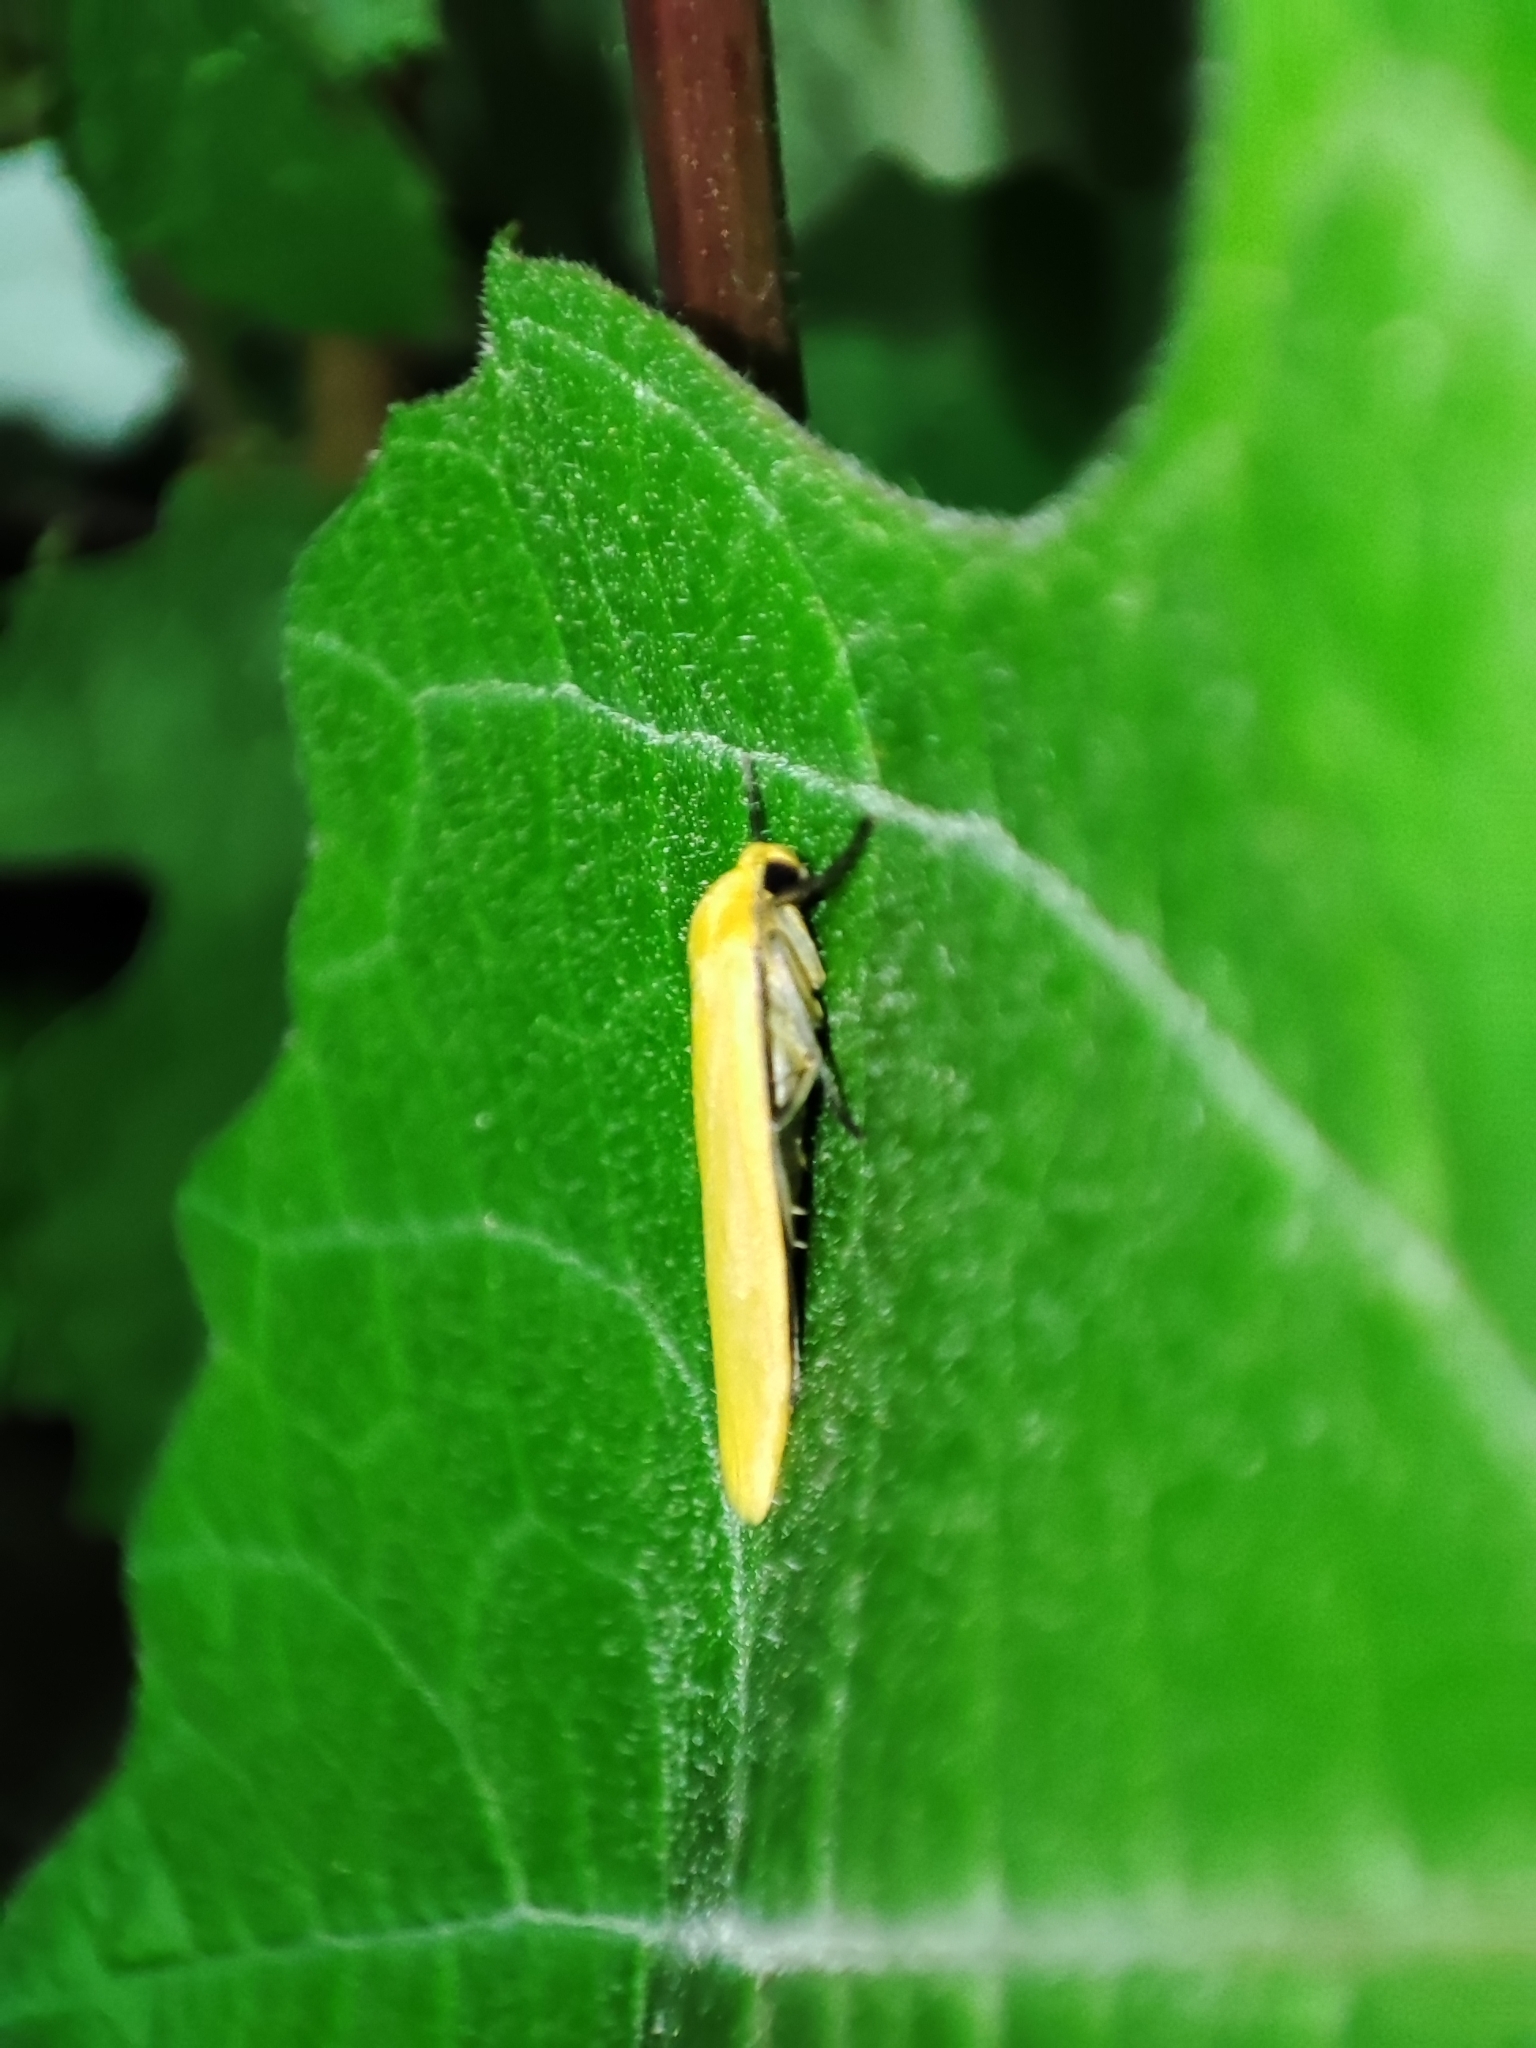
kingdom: Animalia
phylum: Arthropoda
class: Insecta
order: Lepidoptera
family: Erebidae
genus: Wittia
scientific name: Wittia sororcula
